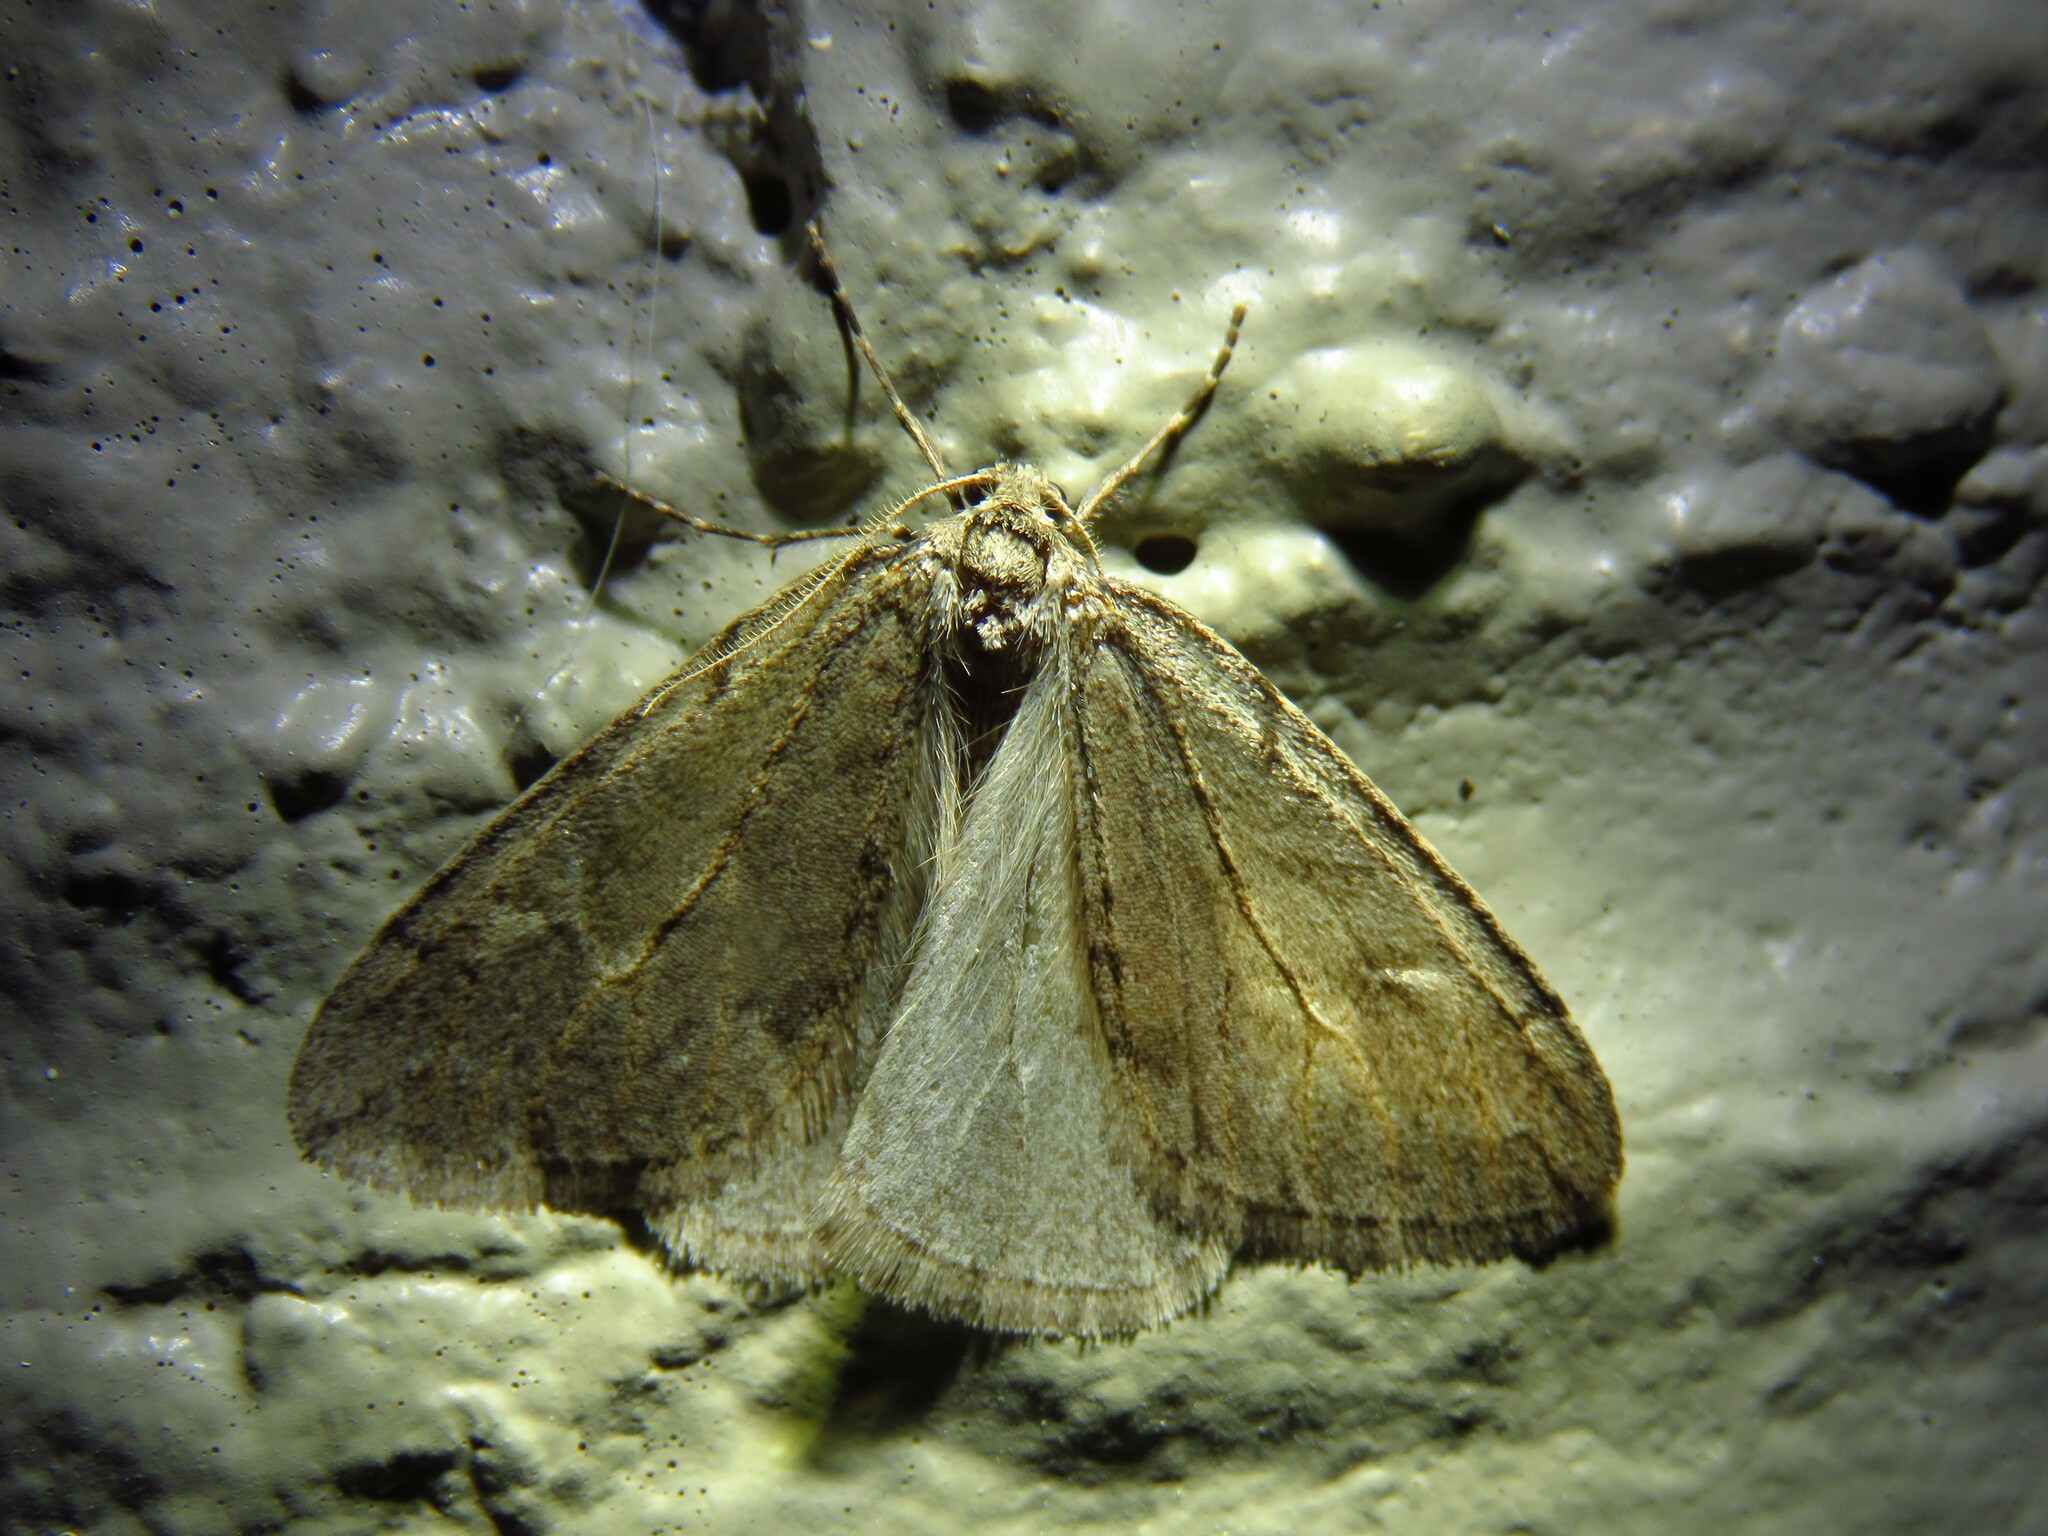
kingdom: Animalia
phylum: Arthropoda
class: Insecta
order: Lepidoptera
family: Geometridae
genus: Paleacrita
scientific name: Paleacrita vernata
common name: Spring cankerworm
